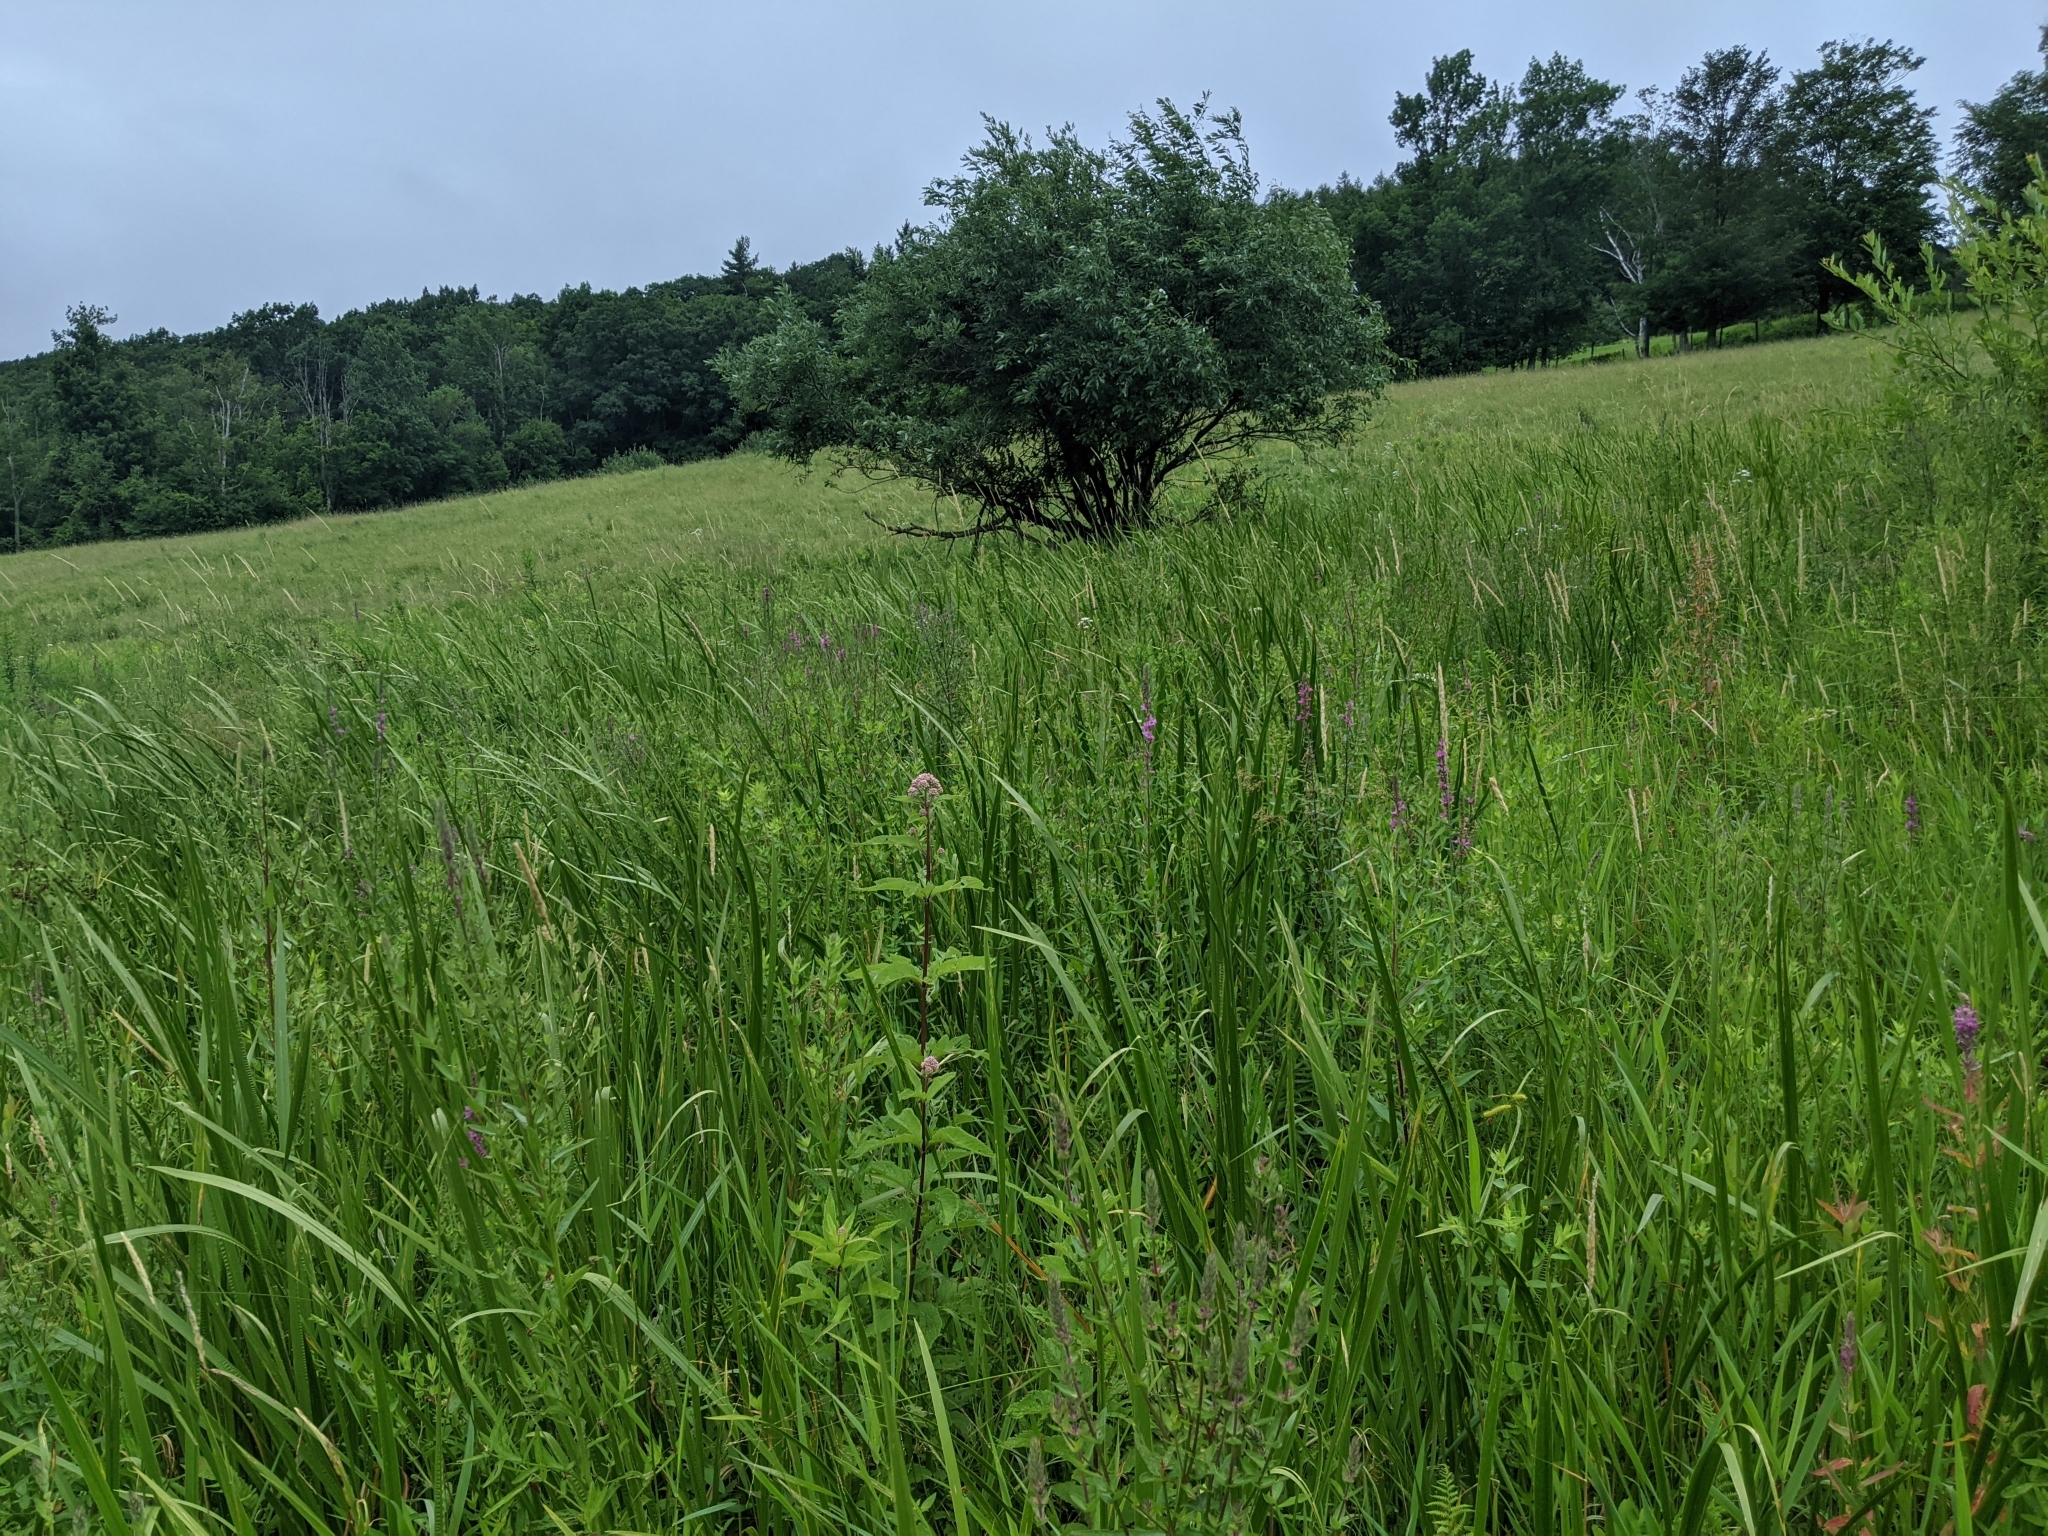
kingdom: Plantae
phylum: Tracheophyta
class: Magnoliopsida
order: Myrtales
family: Lythraceae
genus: Lythrum
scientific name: Lythrum salicaria
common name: Purple loosestrife
